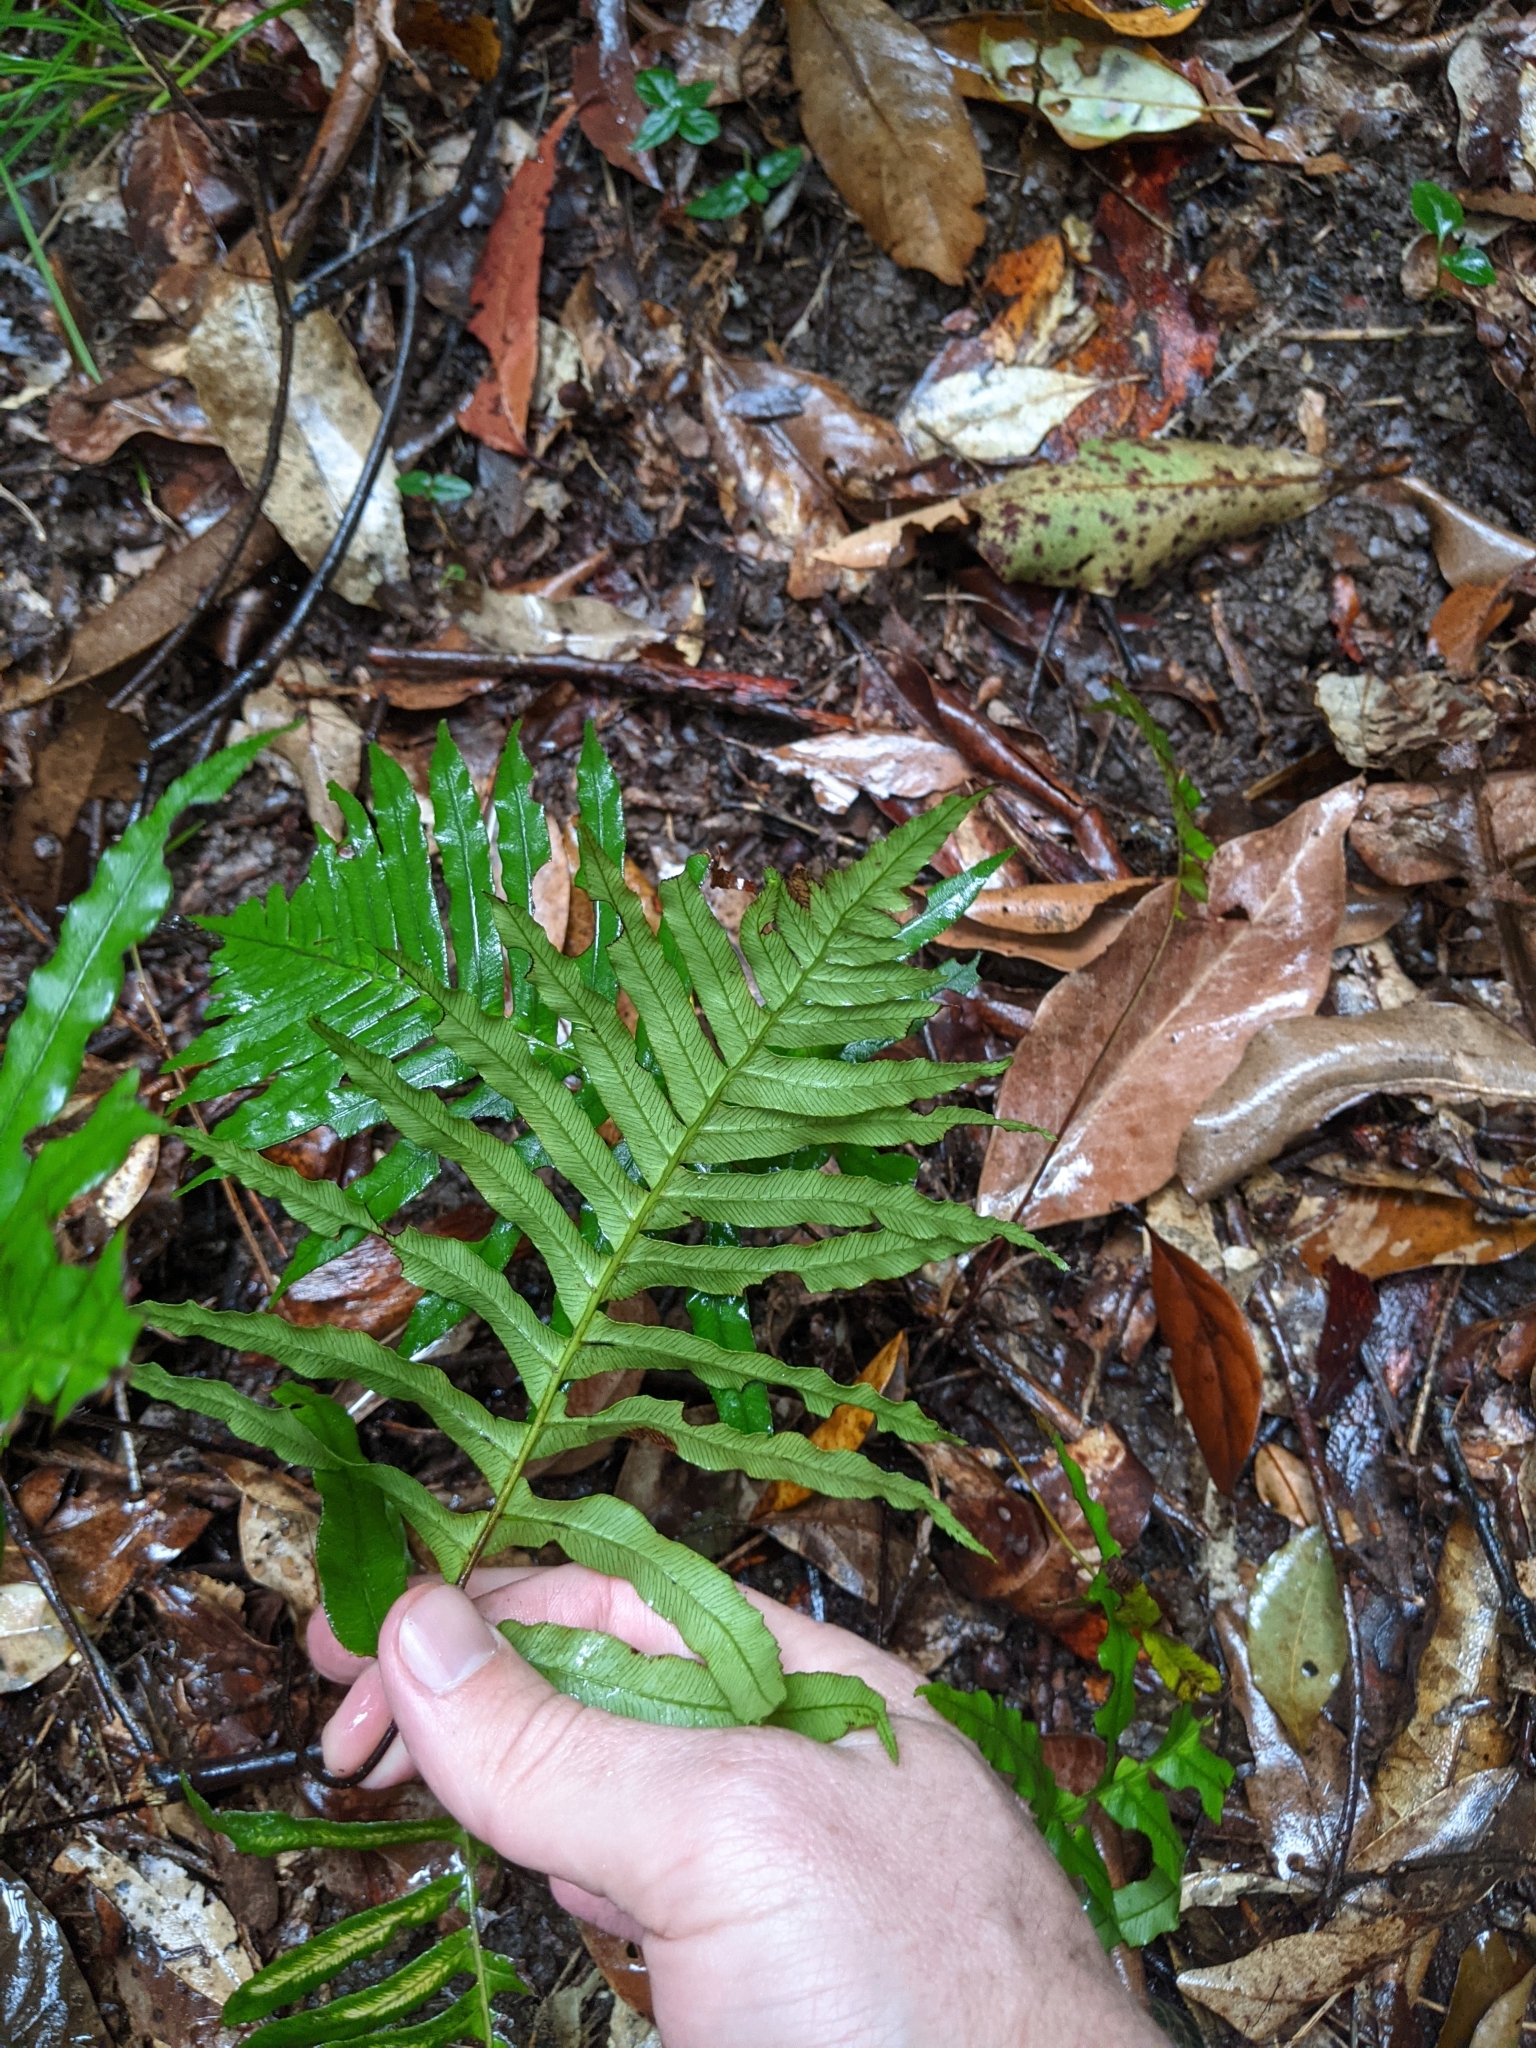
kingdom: Plantae
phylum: Tracheophyta
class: Polypodiopsida
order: Polypodiales
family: Blechnaceae
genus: Oceaniopteris
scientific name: Oceaniopteris cartilaginea
